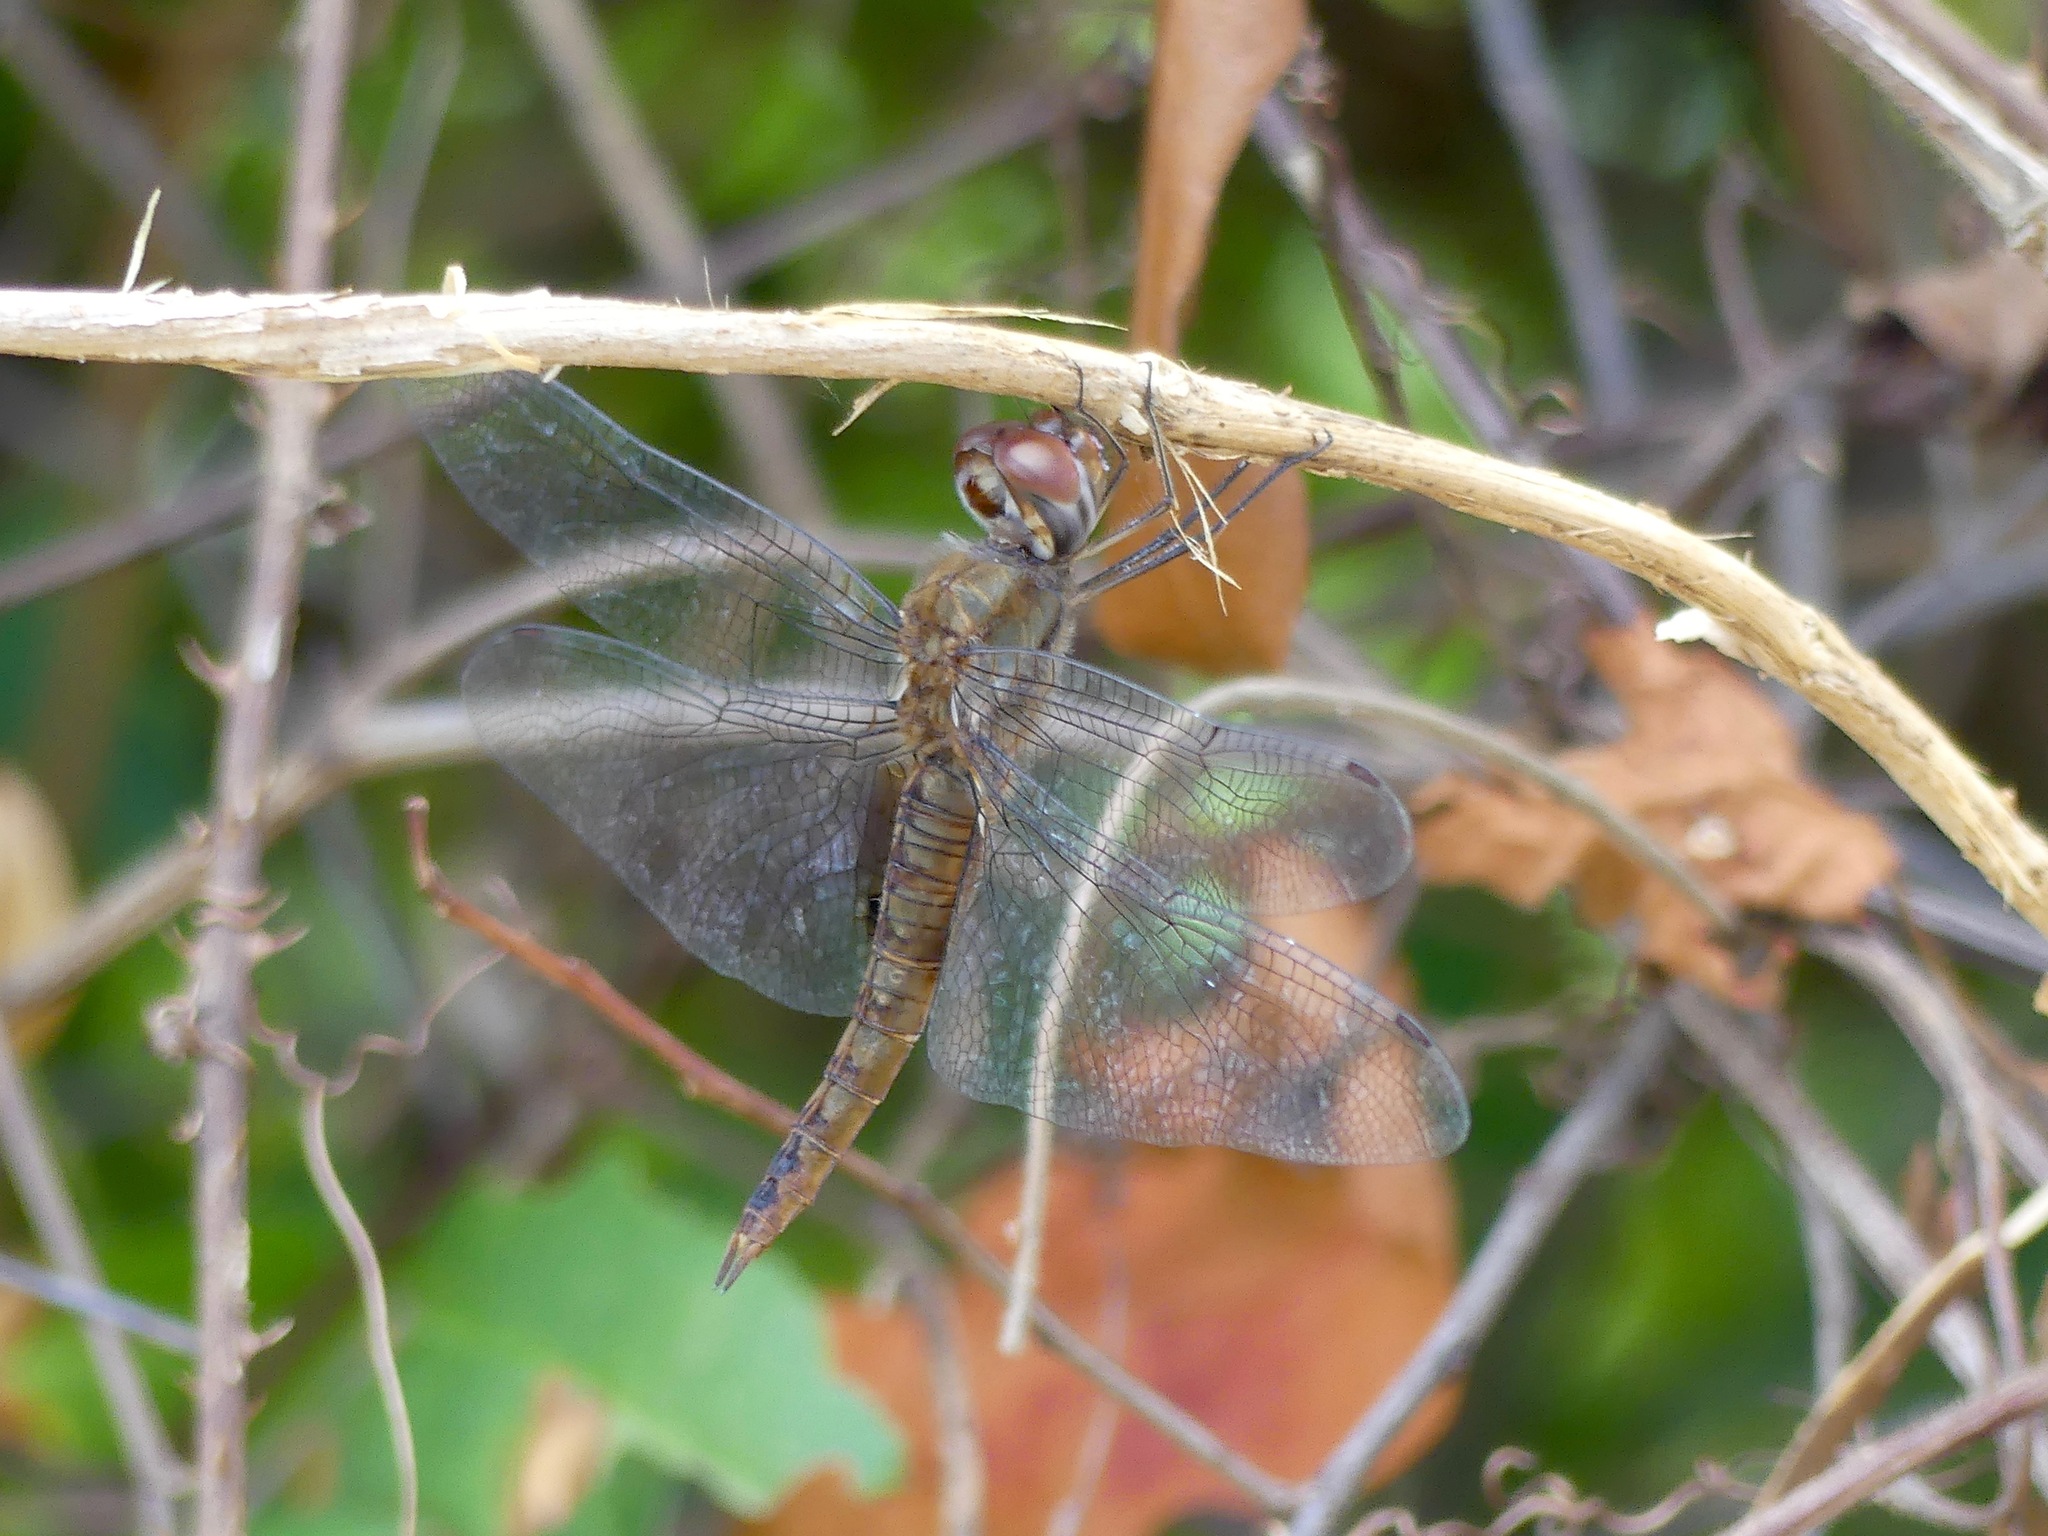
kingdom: Animalia
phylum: Arthropoda
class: Insecta
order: Odonata
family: Libellulidae
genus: Pantala
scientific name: Pantala hymenaea
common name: Spot-winged glider
